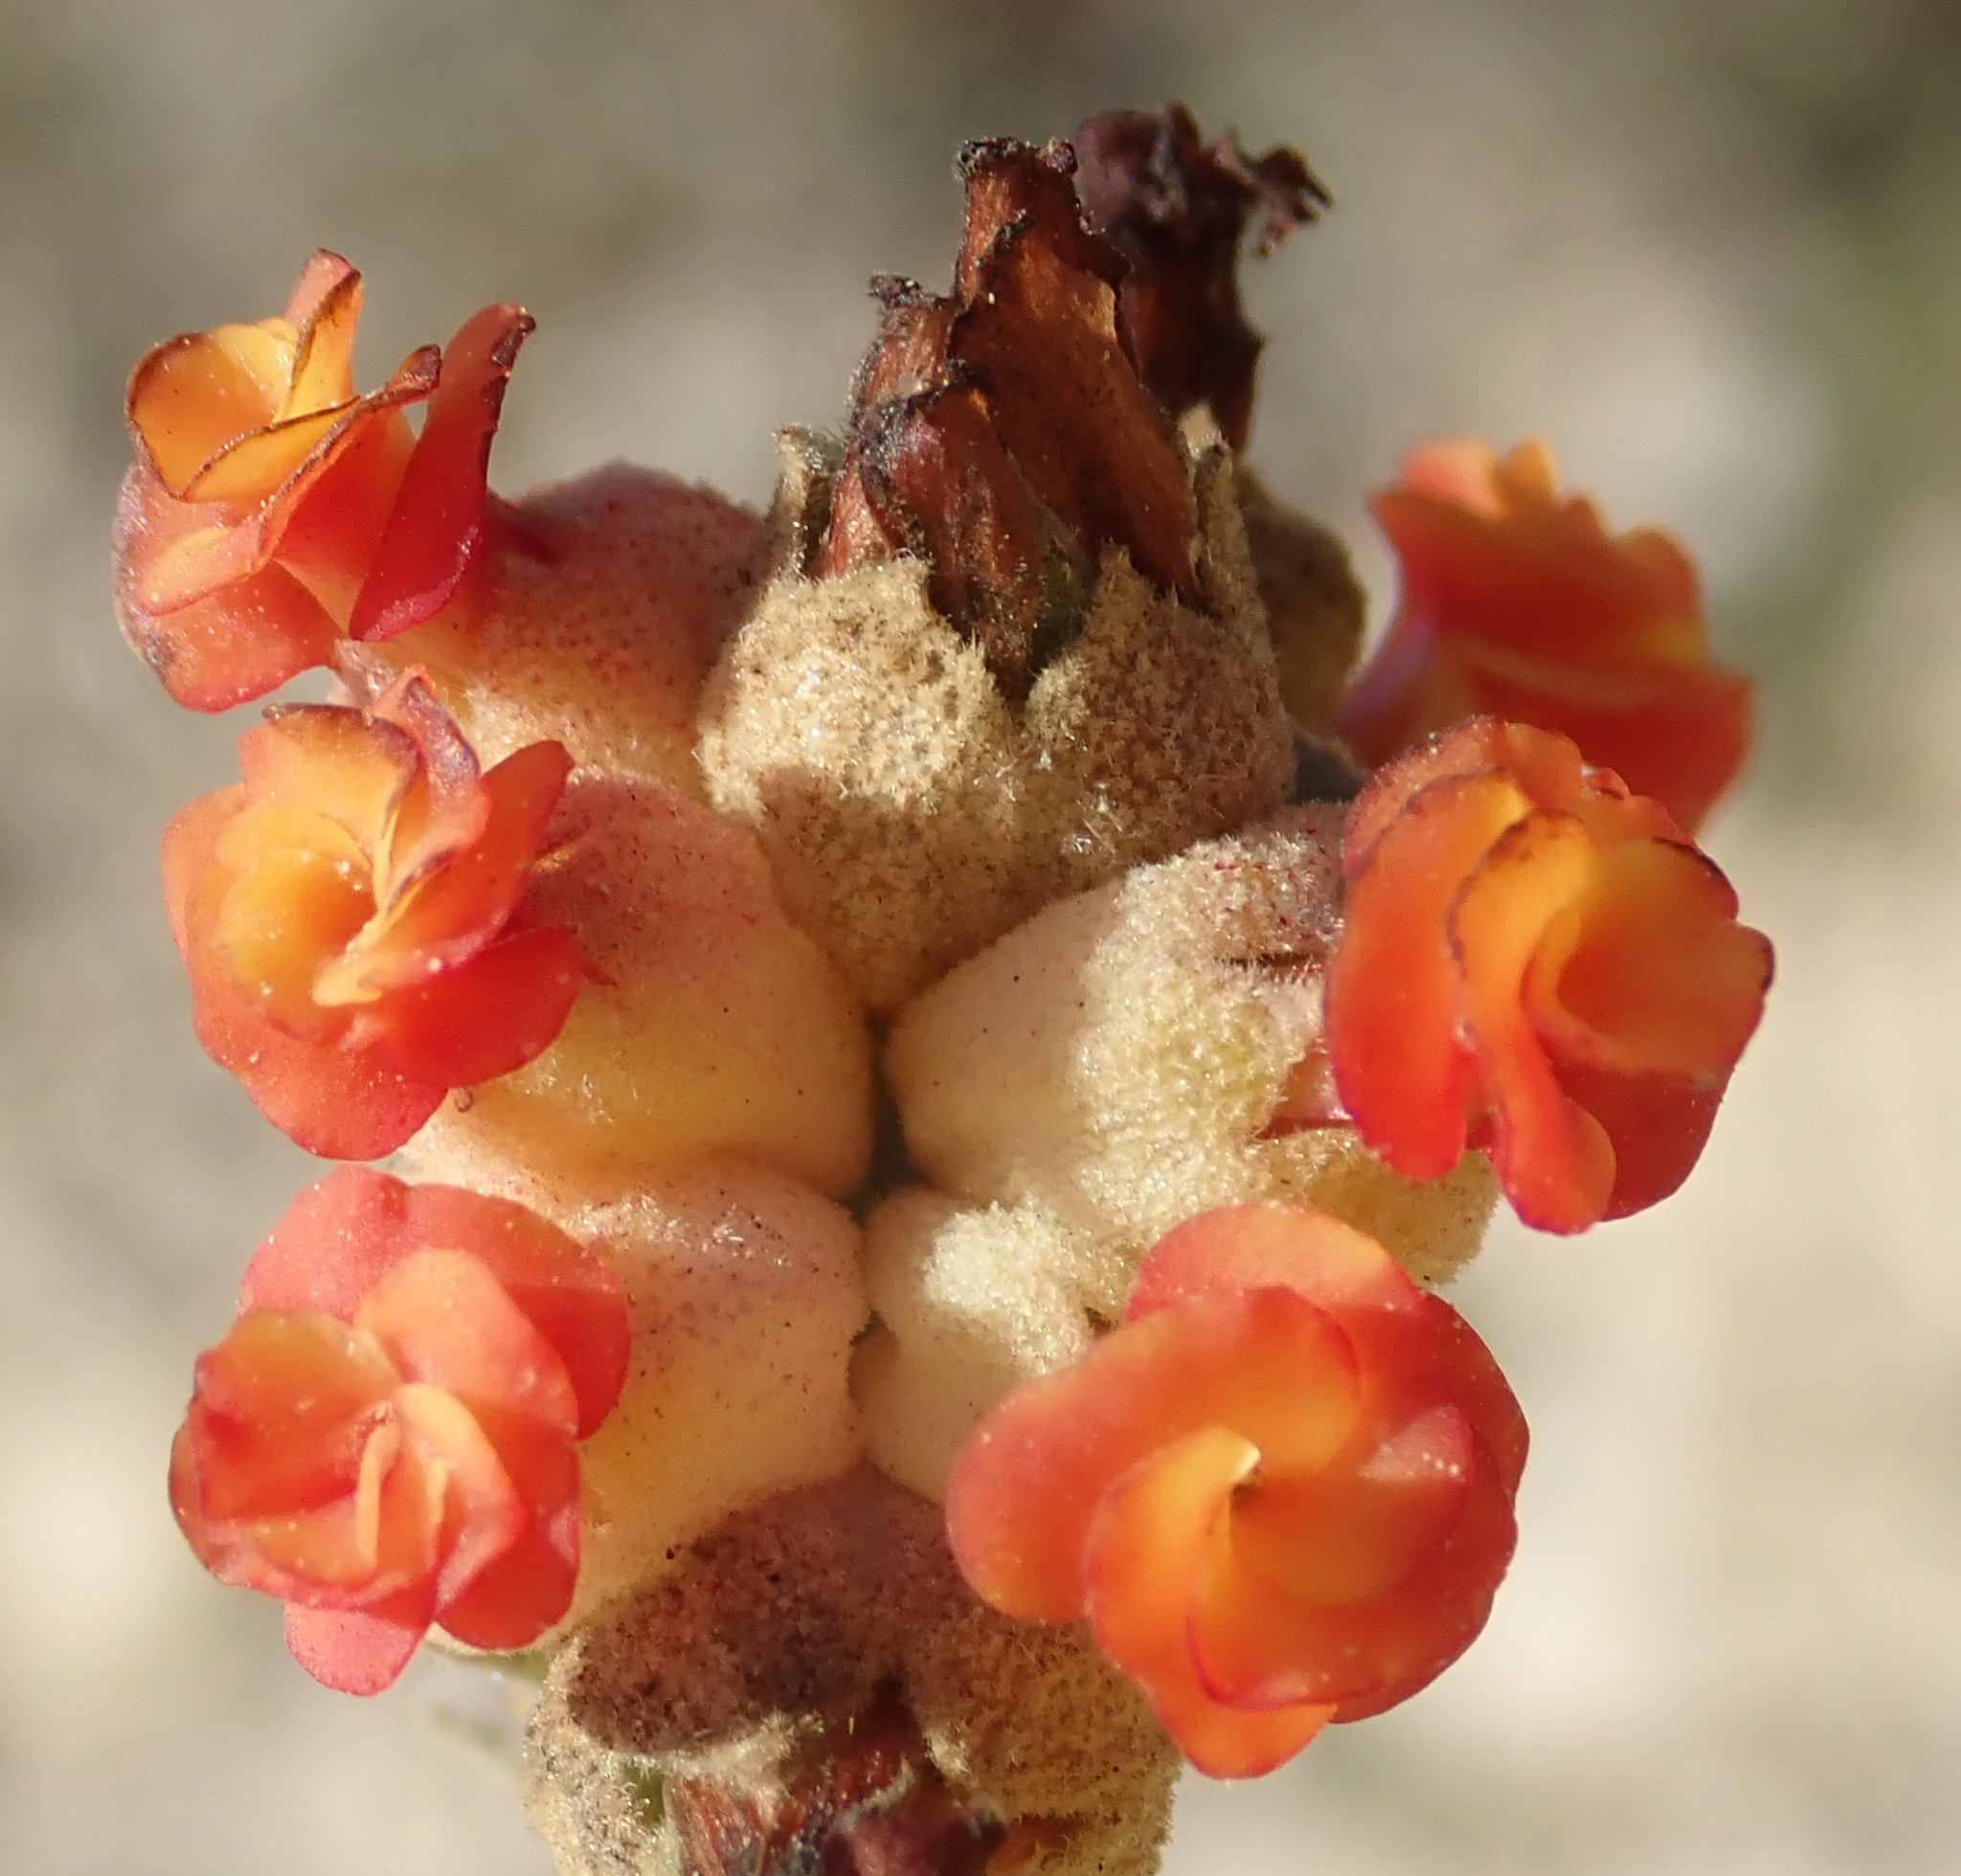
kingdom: Plantae
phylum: Tracheophyta
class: Magnoliopsida
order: Malvales
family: Malvaceae
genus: Hermannia
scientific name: Hermannia trifoliata
